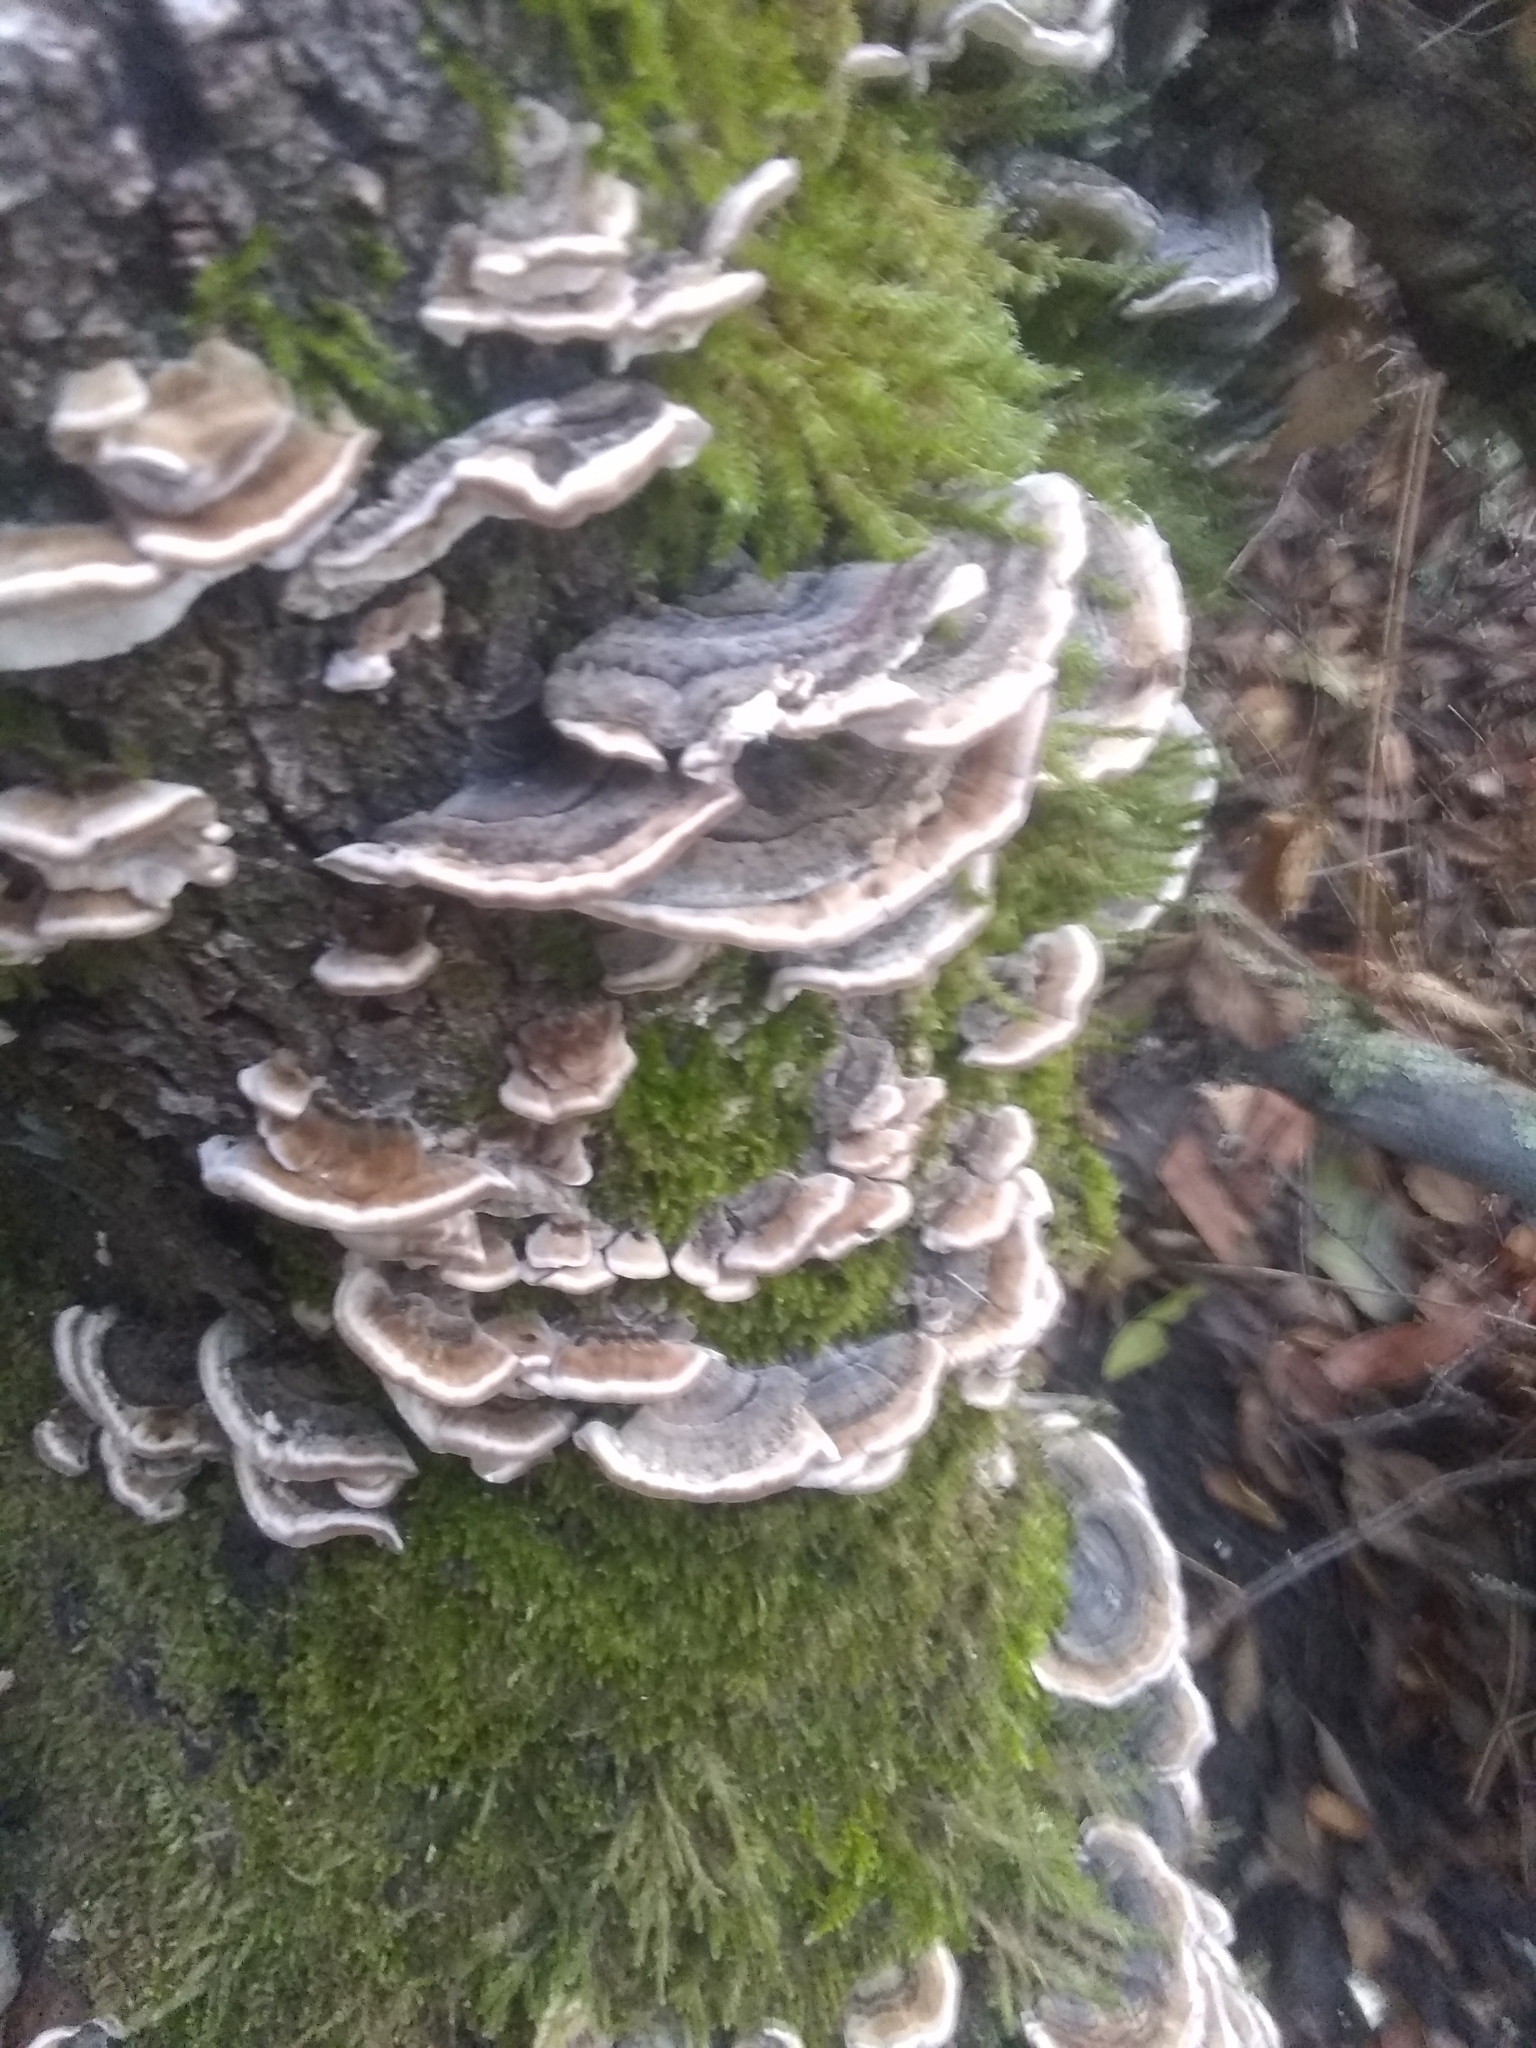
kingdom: Fungi
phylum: Basidiomycota
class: Agaricomycetes
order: Polyporales
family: Polyporaceae
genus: Trametes
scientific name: Trametes versicolor
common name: Turkeytail
